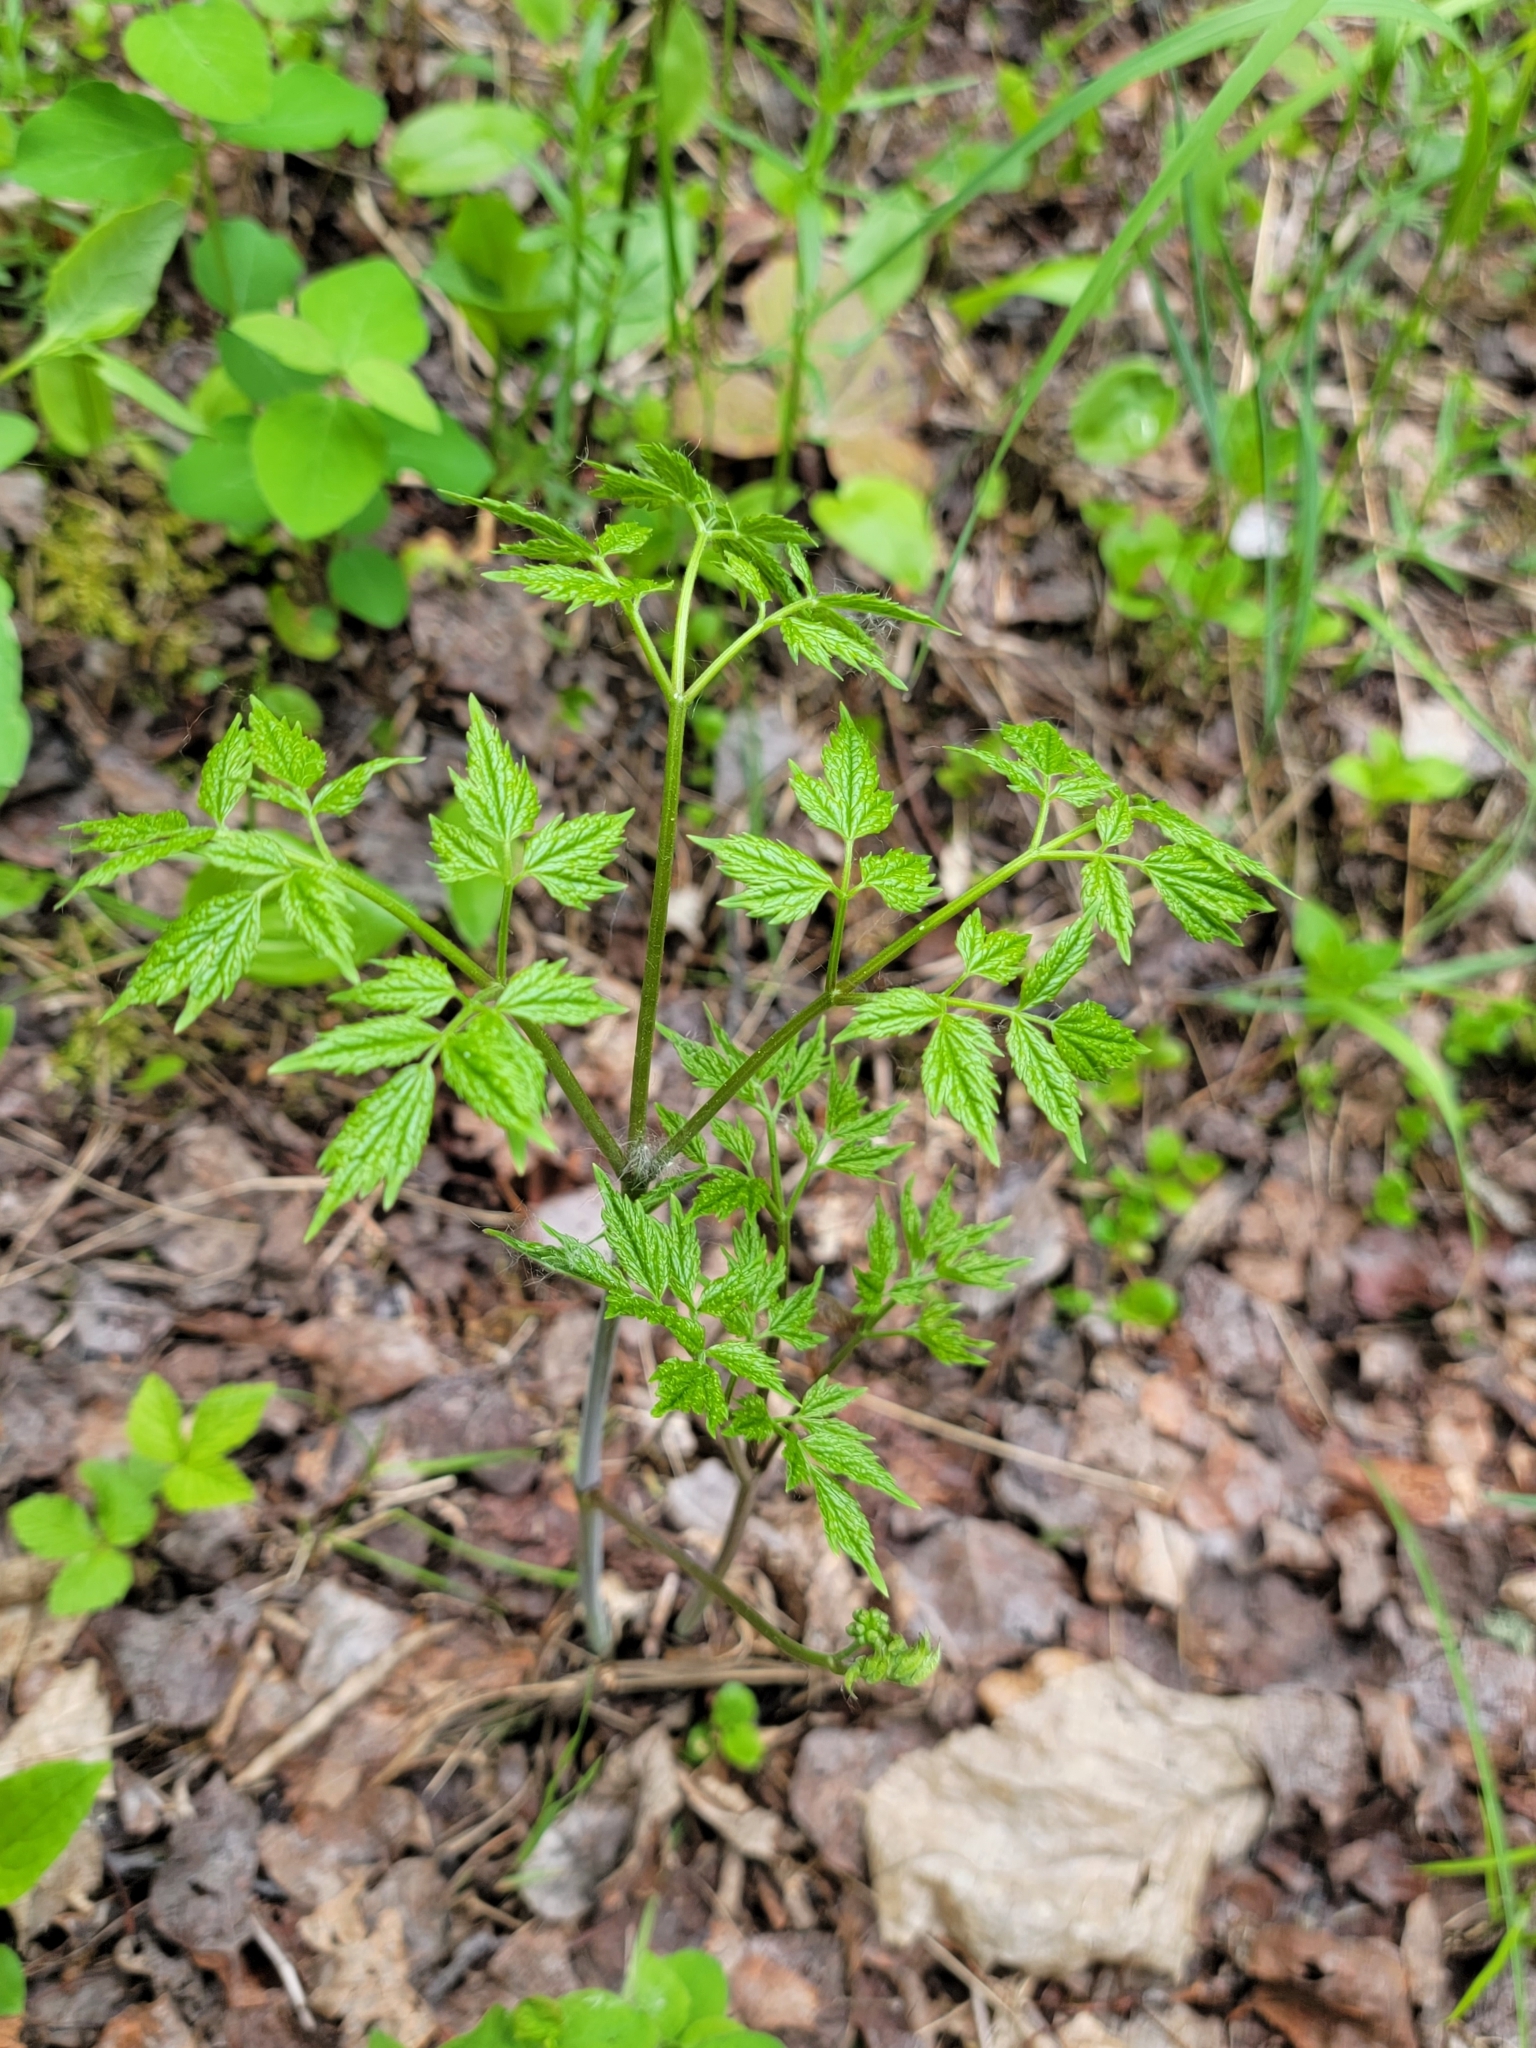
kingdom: Plantae
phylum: Tracheophyta
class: Magnoliopsida
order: Ranunculales
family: Ranunculaceae
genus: Actaea
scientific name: Actaea rubra
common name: Red baneberry
